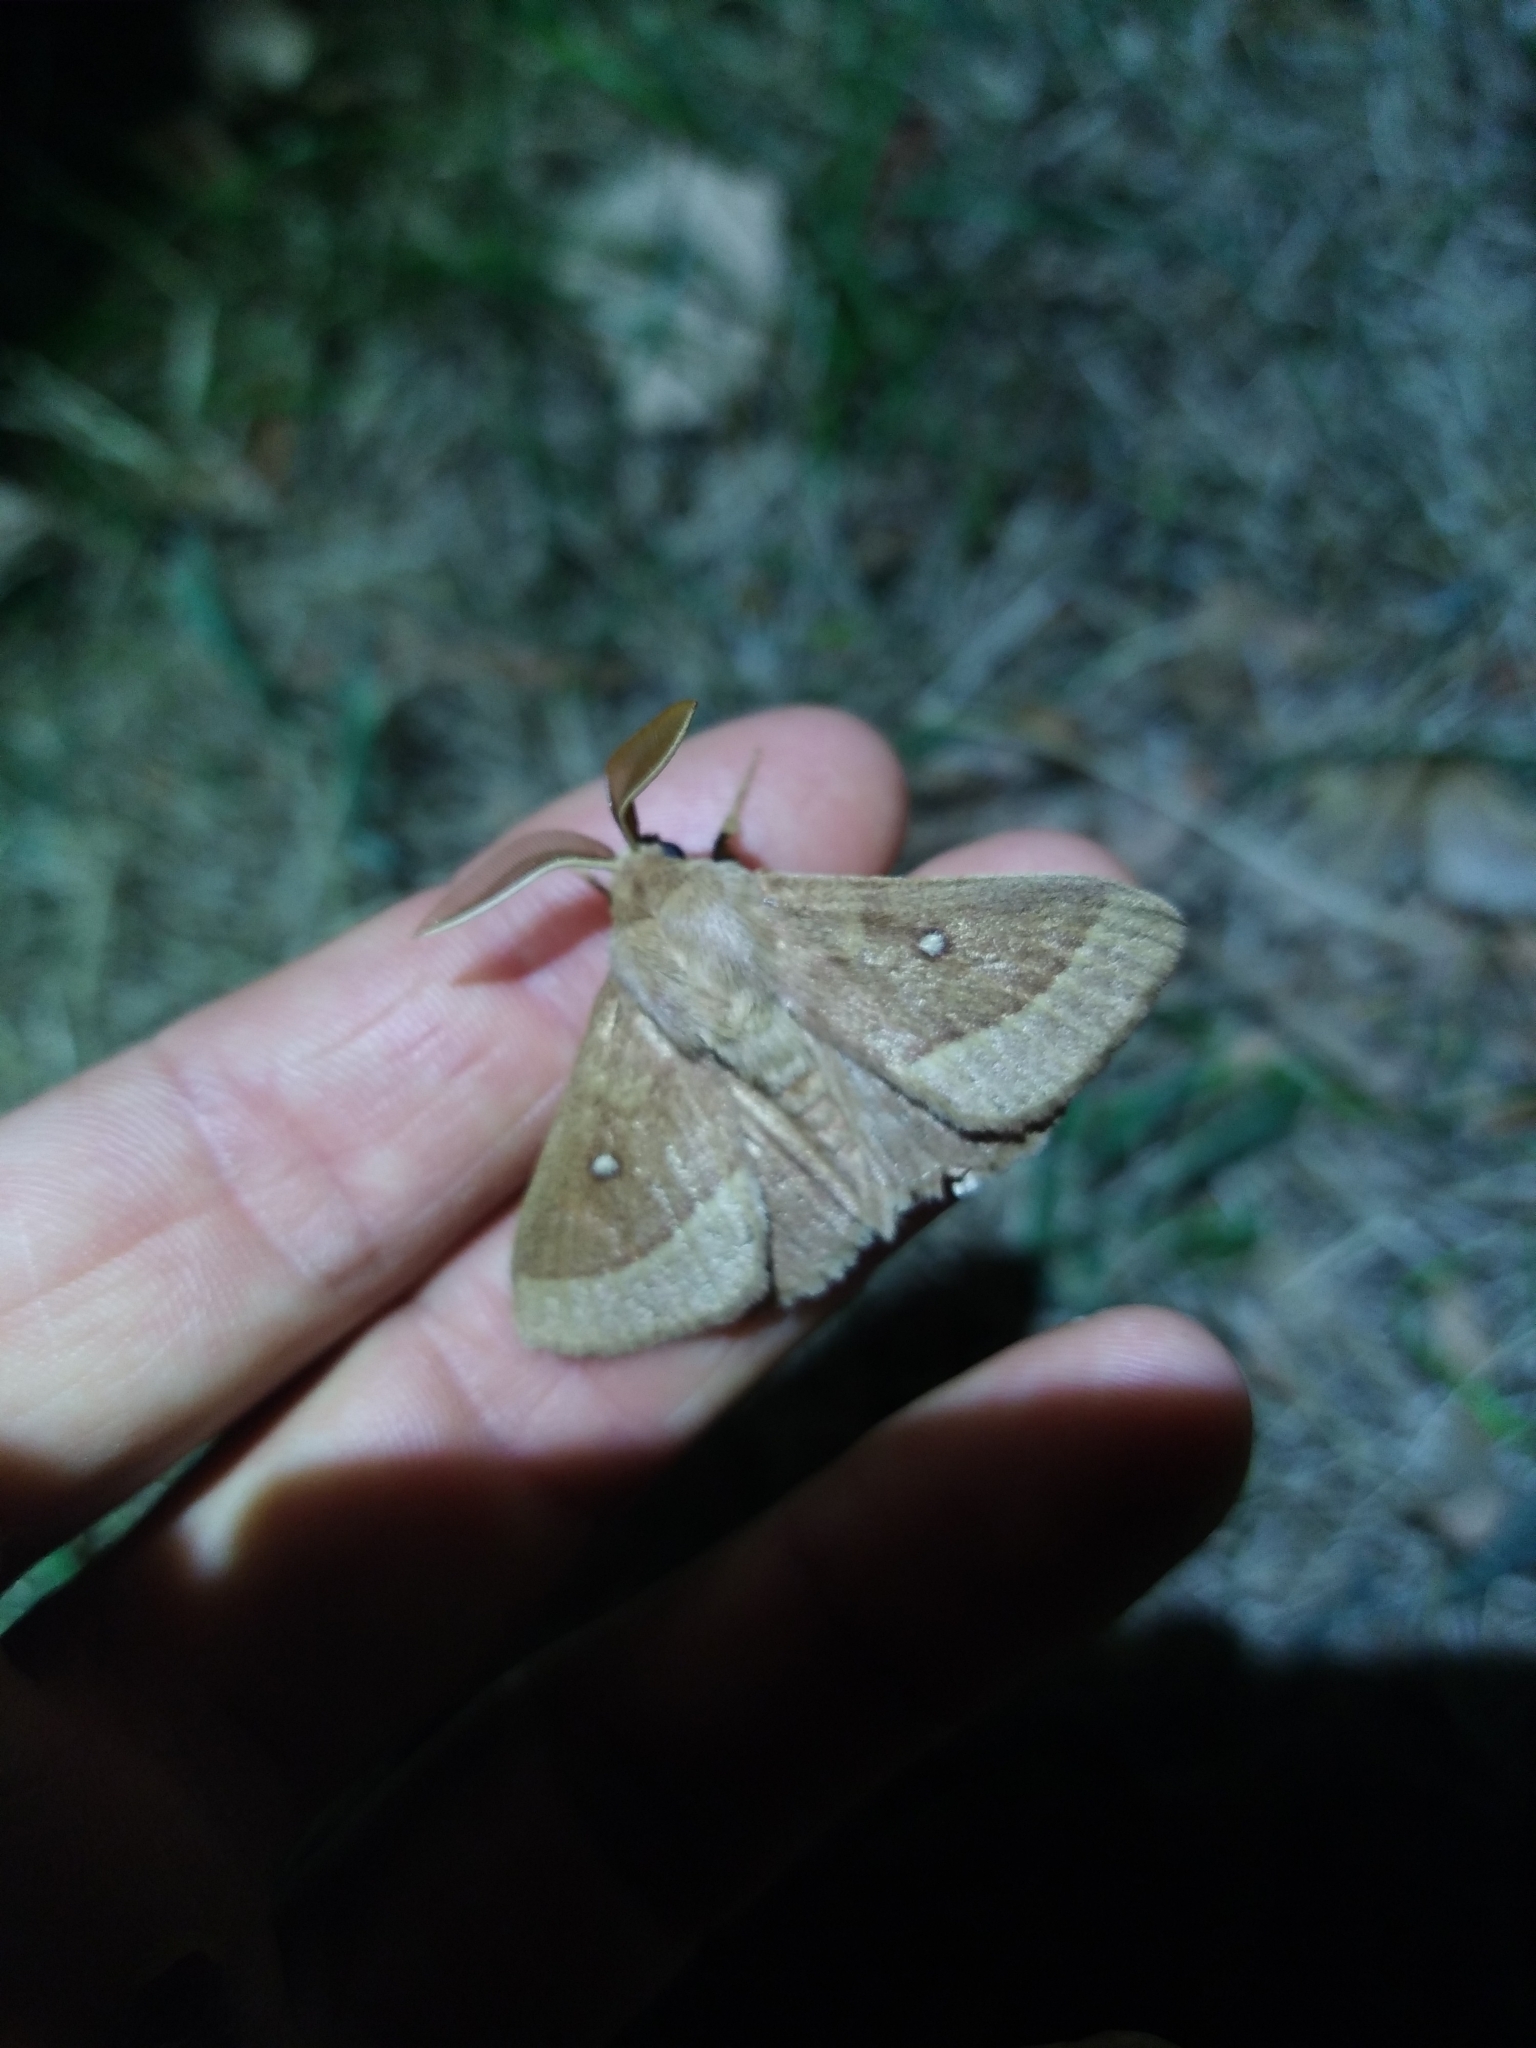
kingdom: Animalia
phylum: Arthropoda
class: Insecta
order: Lepidoptera
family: Lasiocampidae
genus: Lasiocampa
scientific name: Lasiocampa trifolii
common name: Grass eggar
